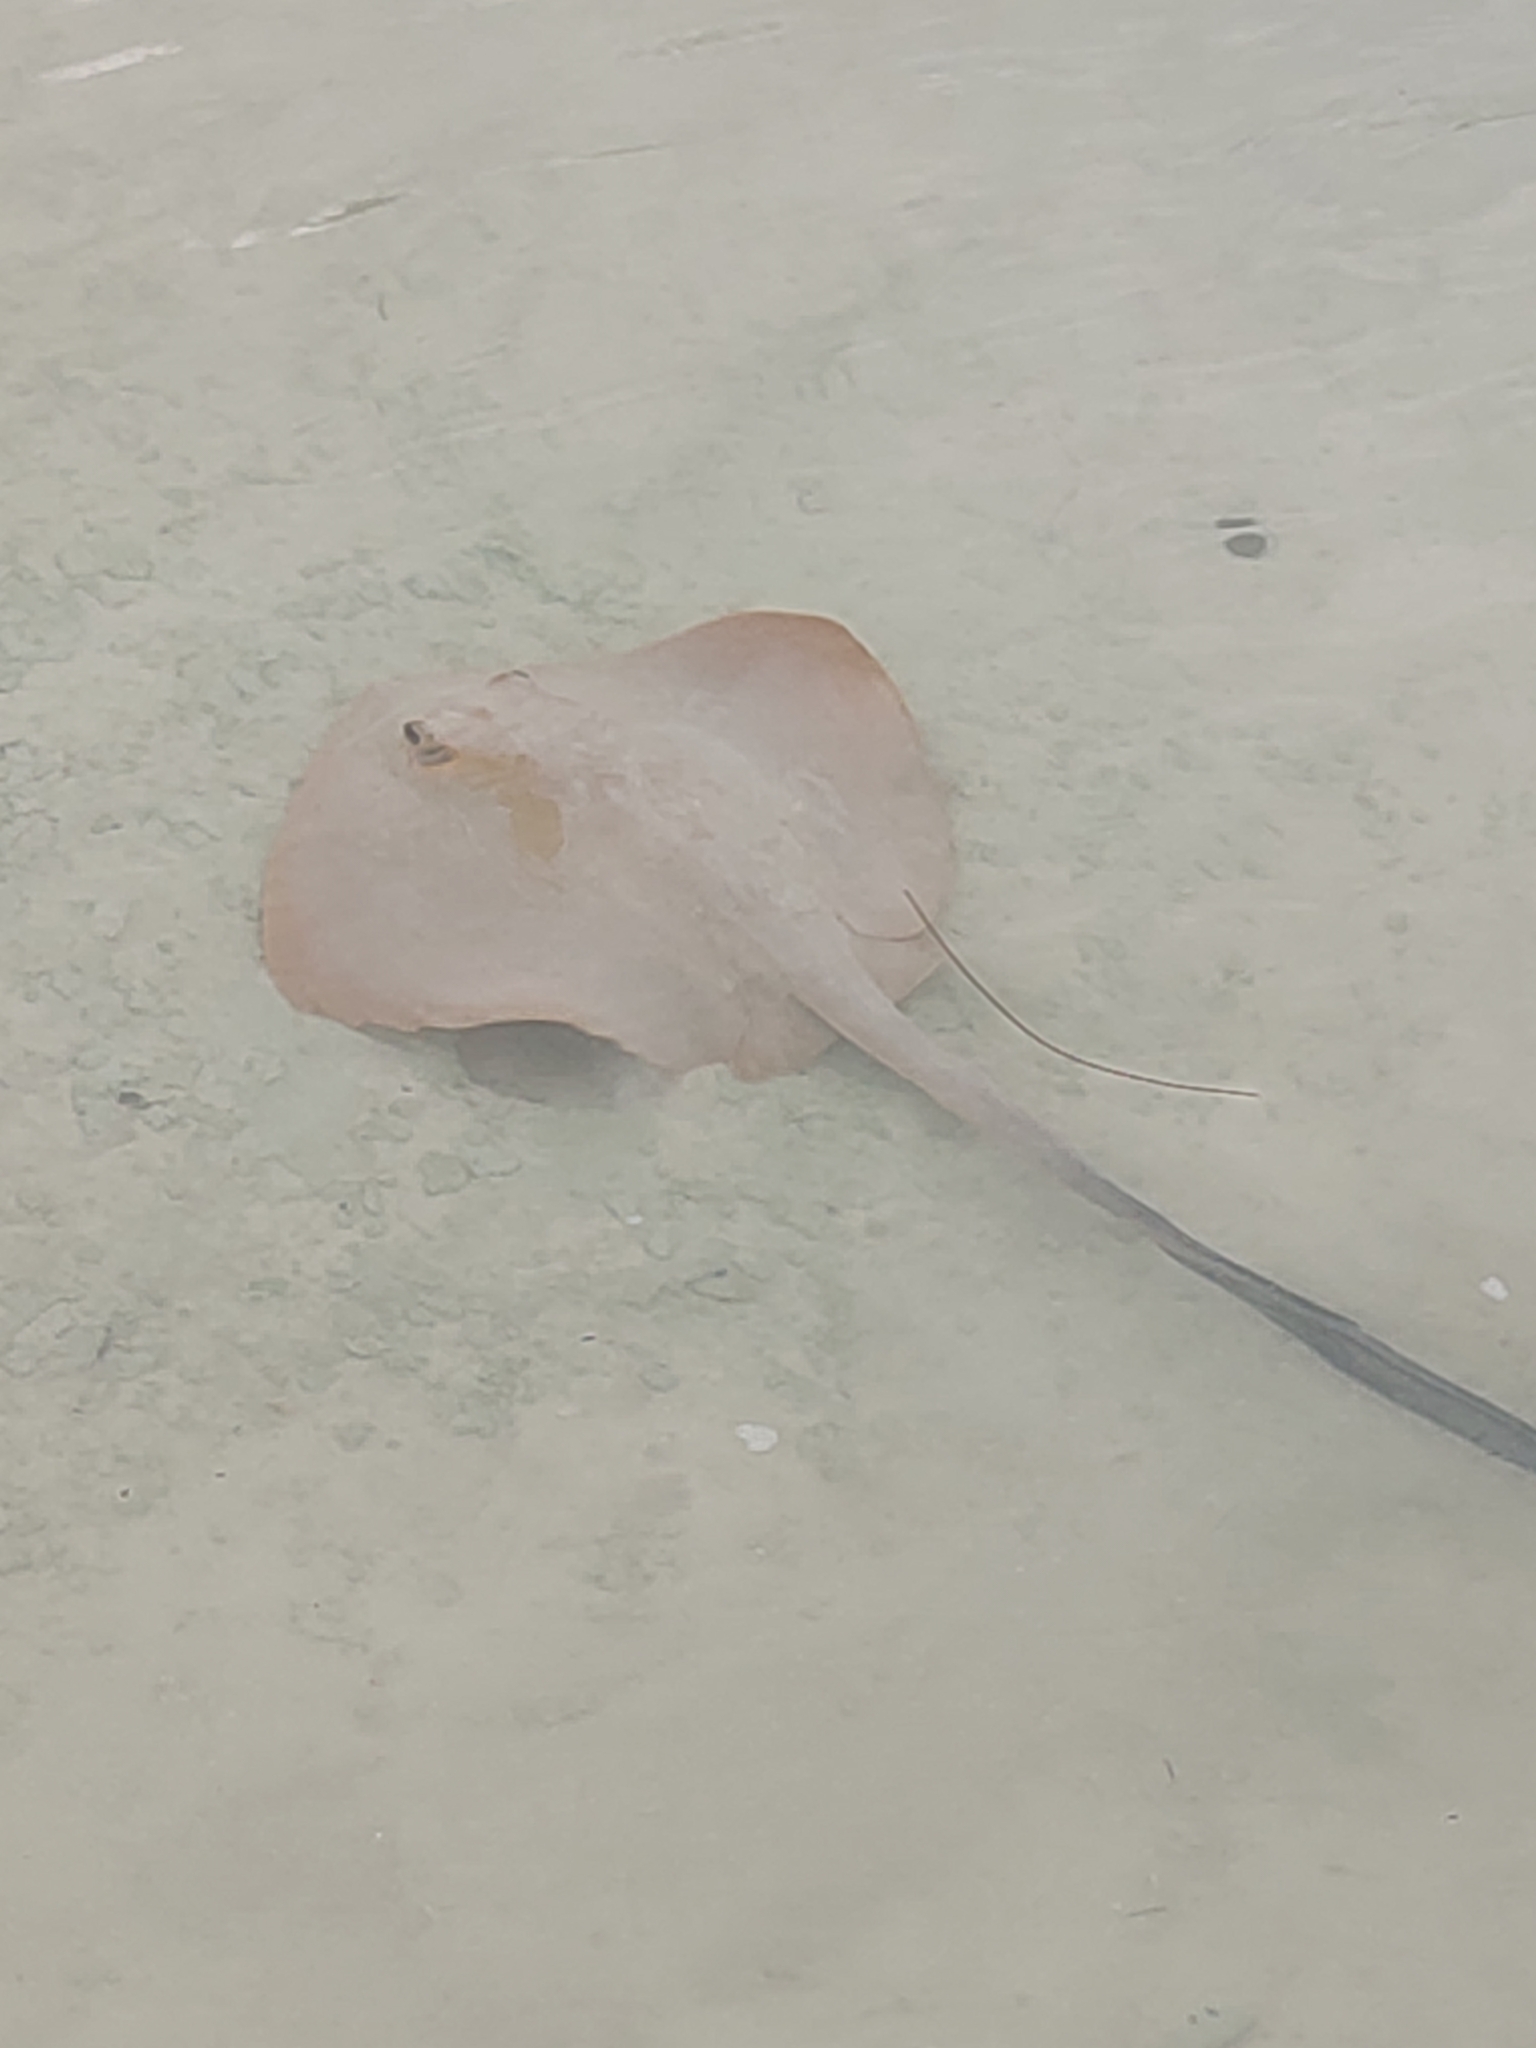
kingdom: Animalia
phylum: Chordata
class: Elasmobranchii
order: Myliobatiformes
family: Dasyatidae
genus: Pastinachus
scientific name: Pastinachus ater
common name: Banana-tail ray
